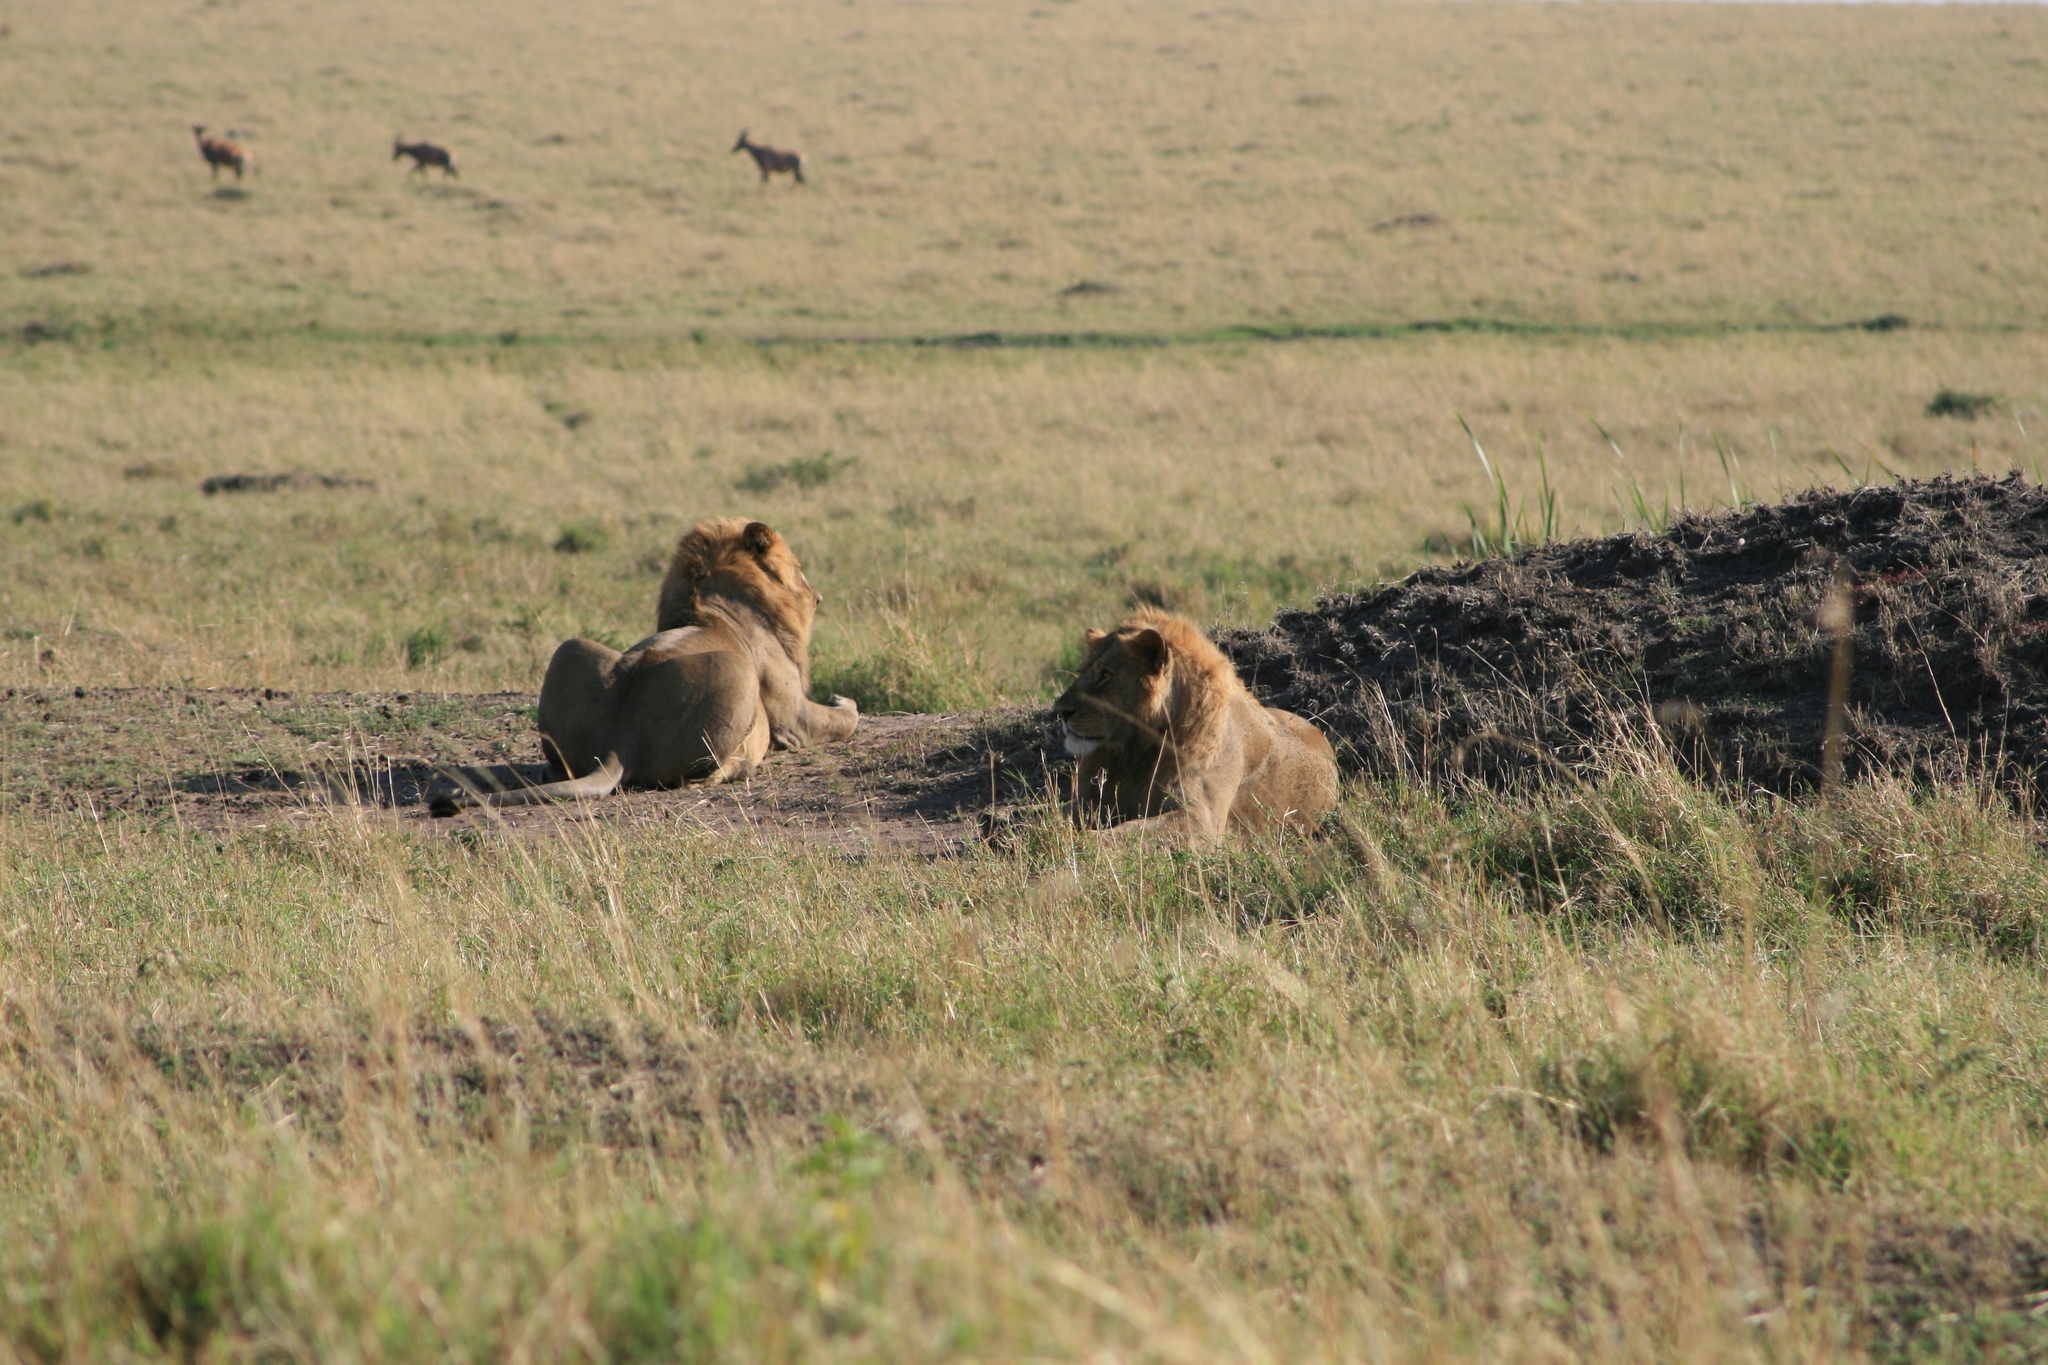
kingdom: Animalia
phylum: Chordata
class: Mammalia
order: Carnivora
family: Felidae
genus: Panthera
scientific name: Panthera leo
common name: Lion
